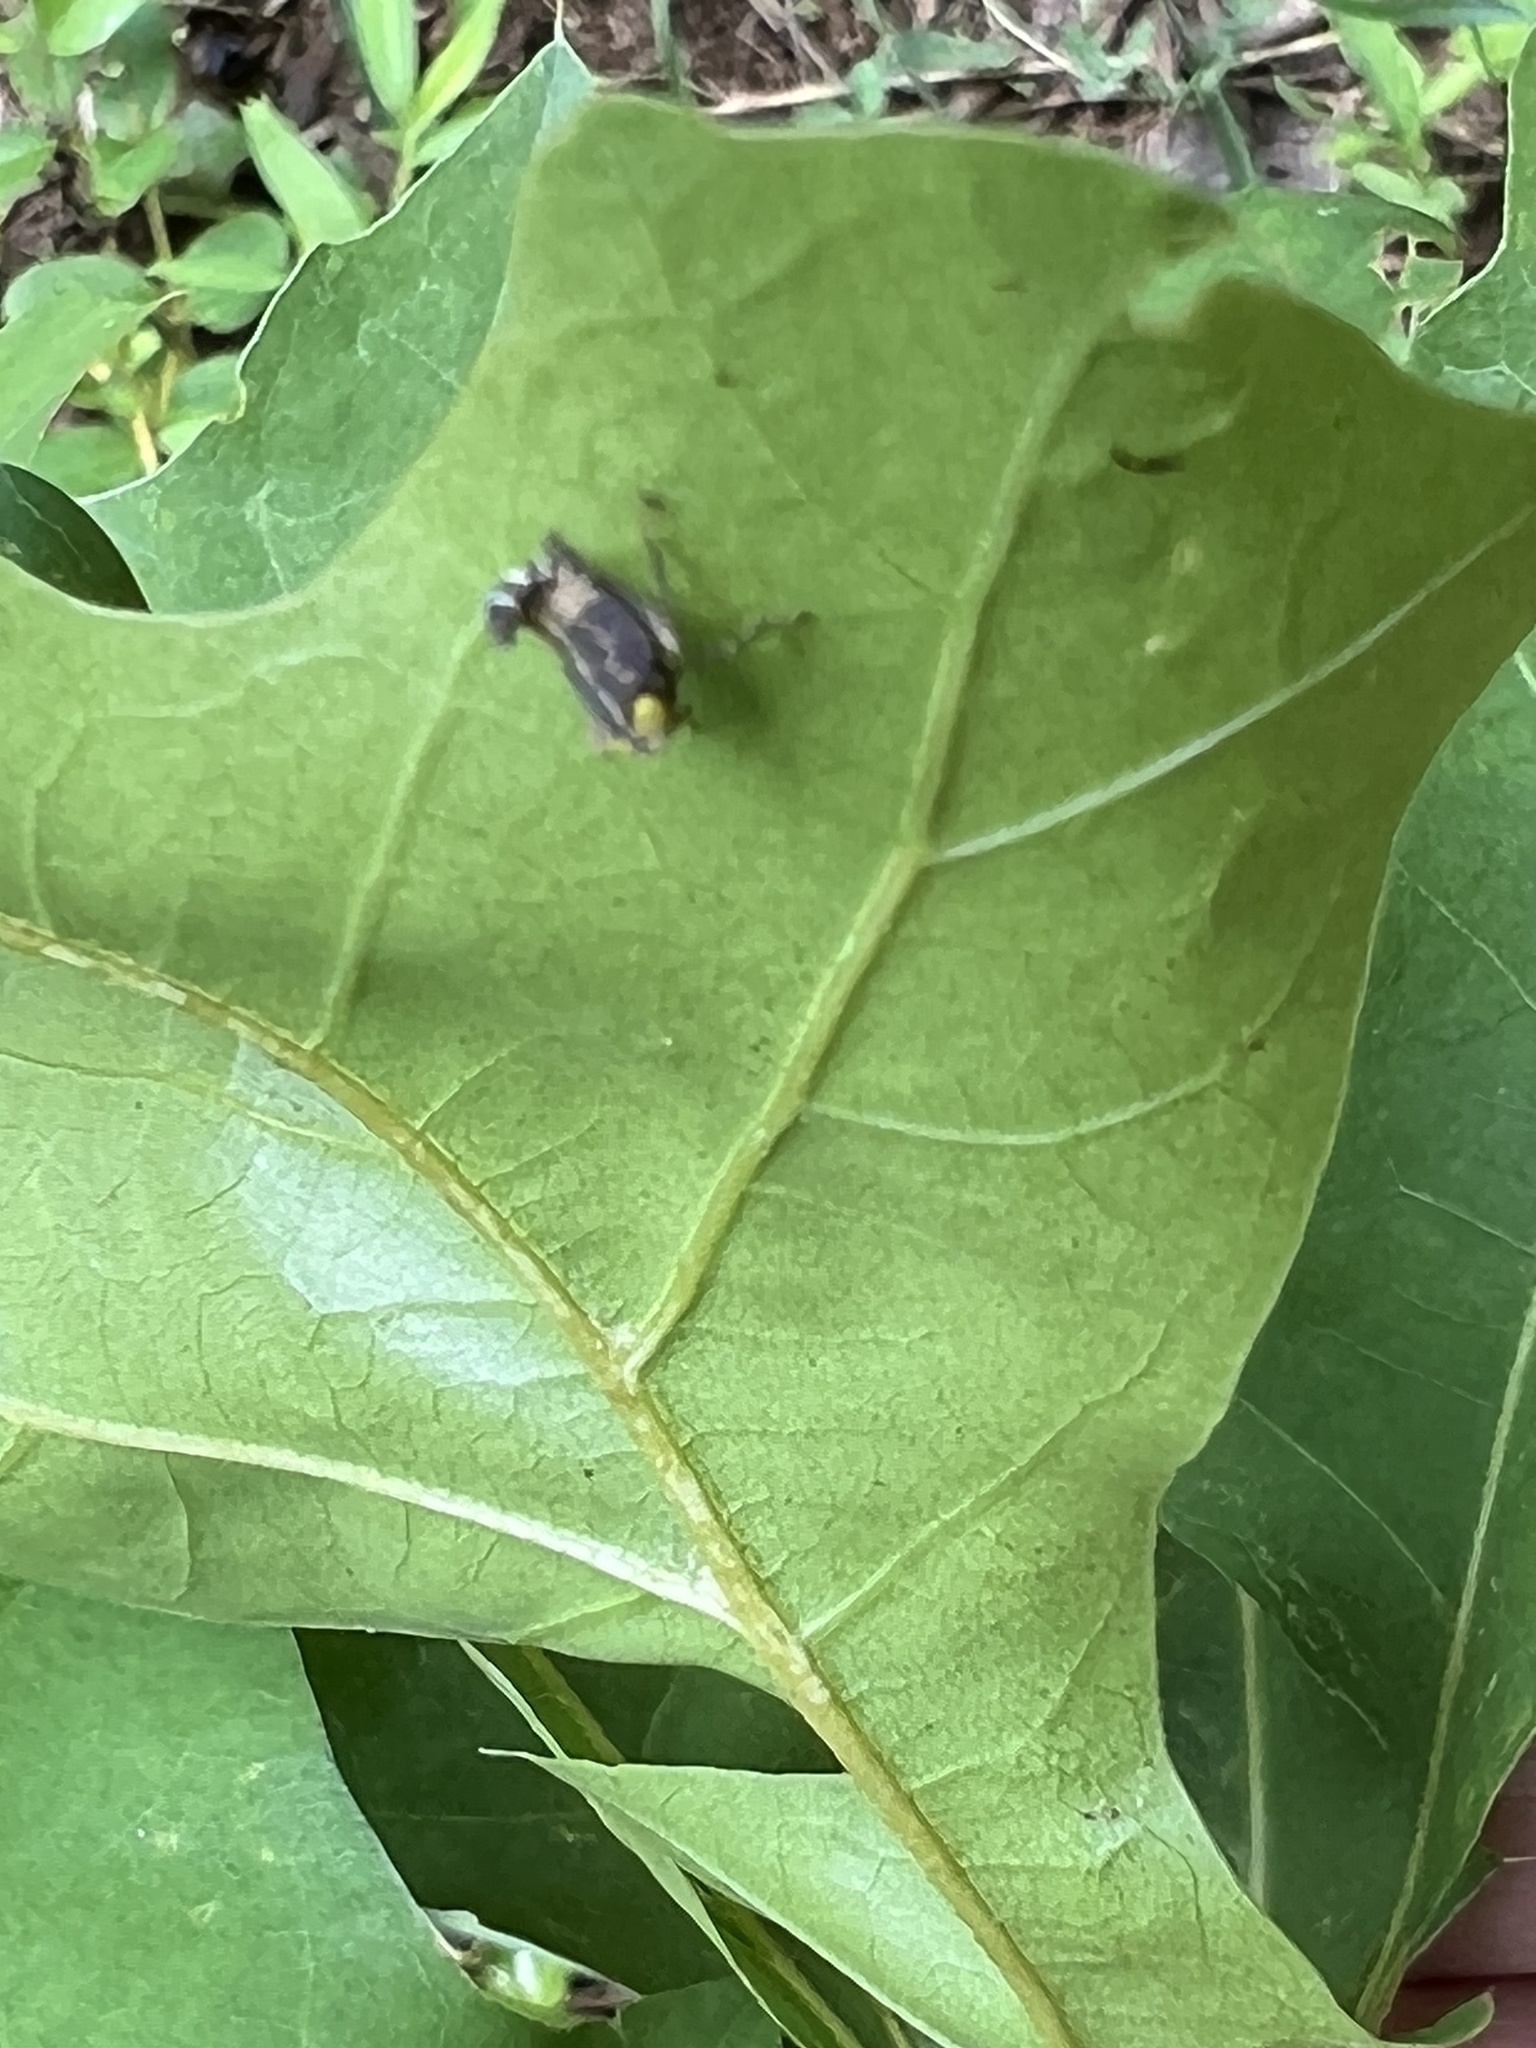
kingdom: Animalia
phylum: Arthropoda
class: Insecta
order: Hemiptera
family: Cicadellidae
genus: Jikradia
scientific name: Jikradia olitoria
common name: Coppery leafhopper
